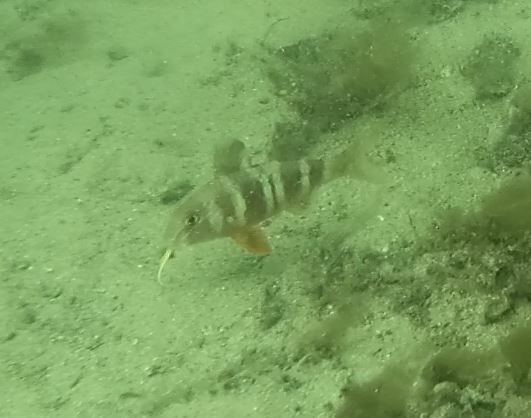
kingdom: Animalia
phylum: Chordata
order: Perciformes
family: Mullidae
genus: Upeneichthys
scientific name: Upeneichthys lineatus
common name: Red mullet
